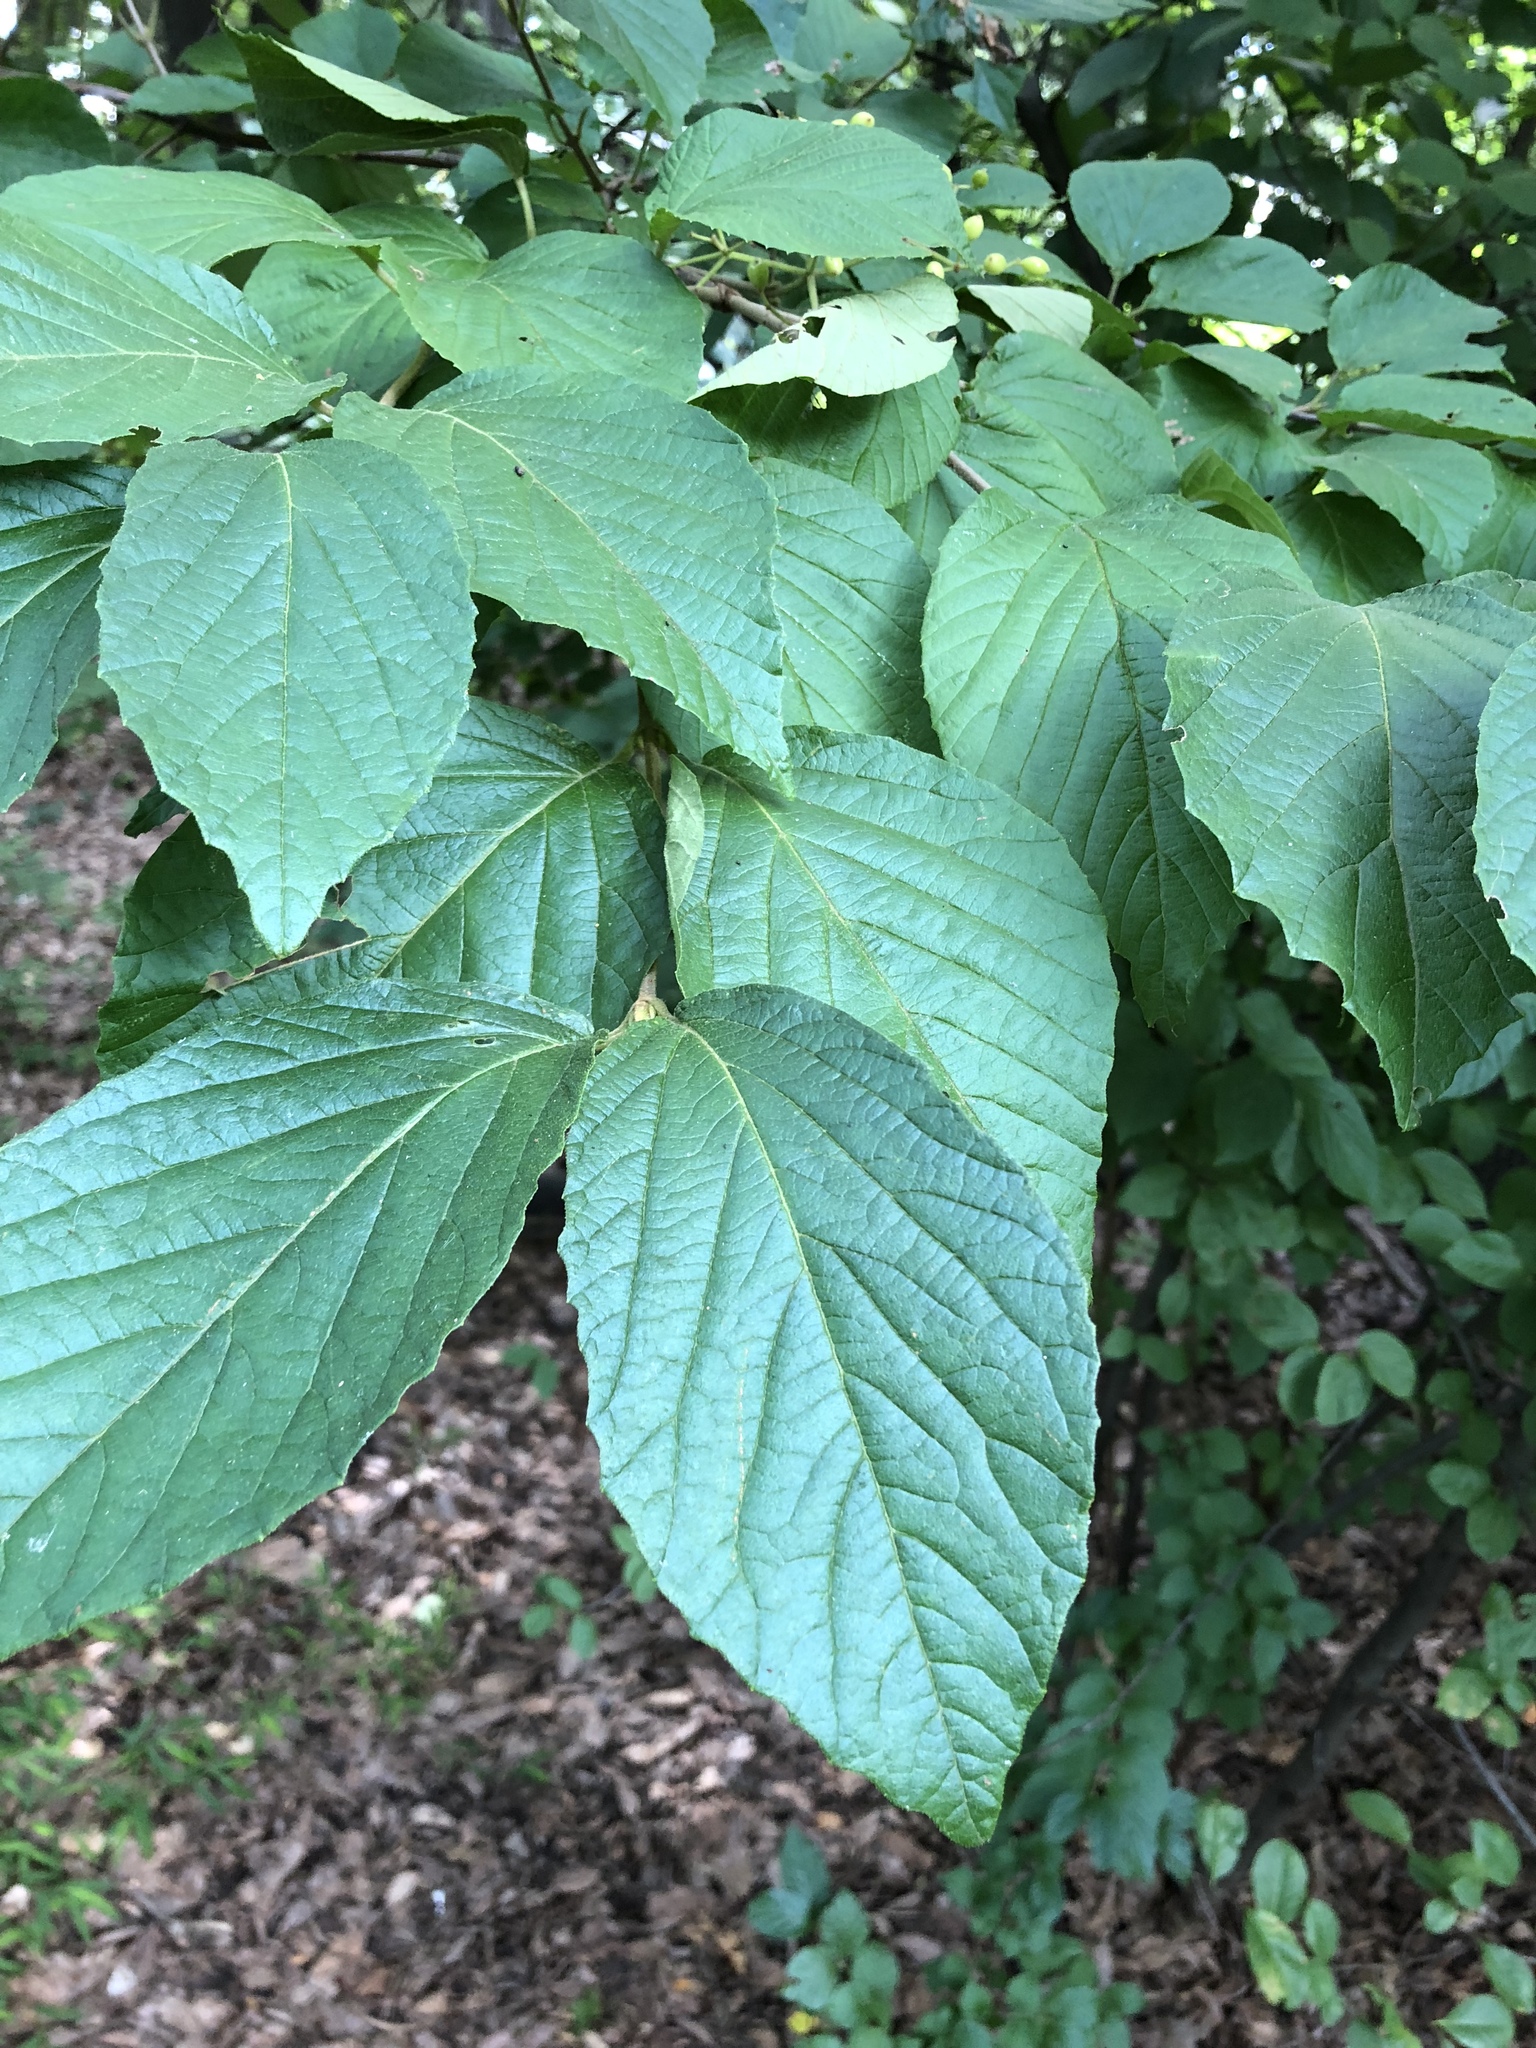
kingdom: Plantae
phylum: Tracheophyta
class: Magnoliopsida
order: Dipsacales
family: Viburnaceae
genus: Viburnum
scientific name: Viburnum dilatatum
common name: Linden arrowwood
